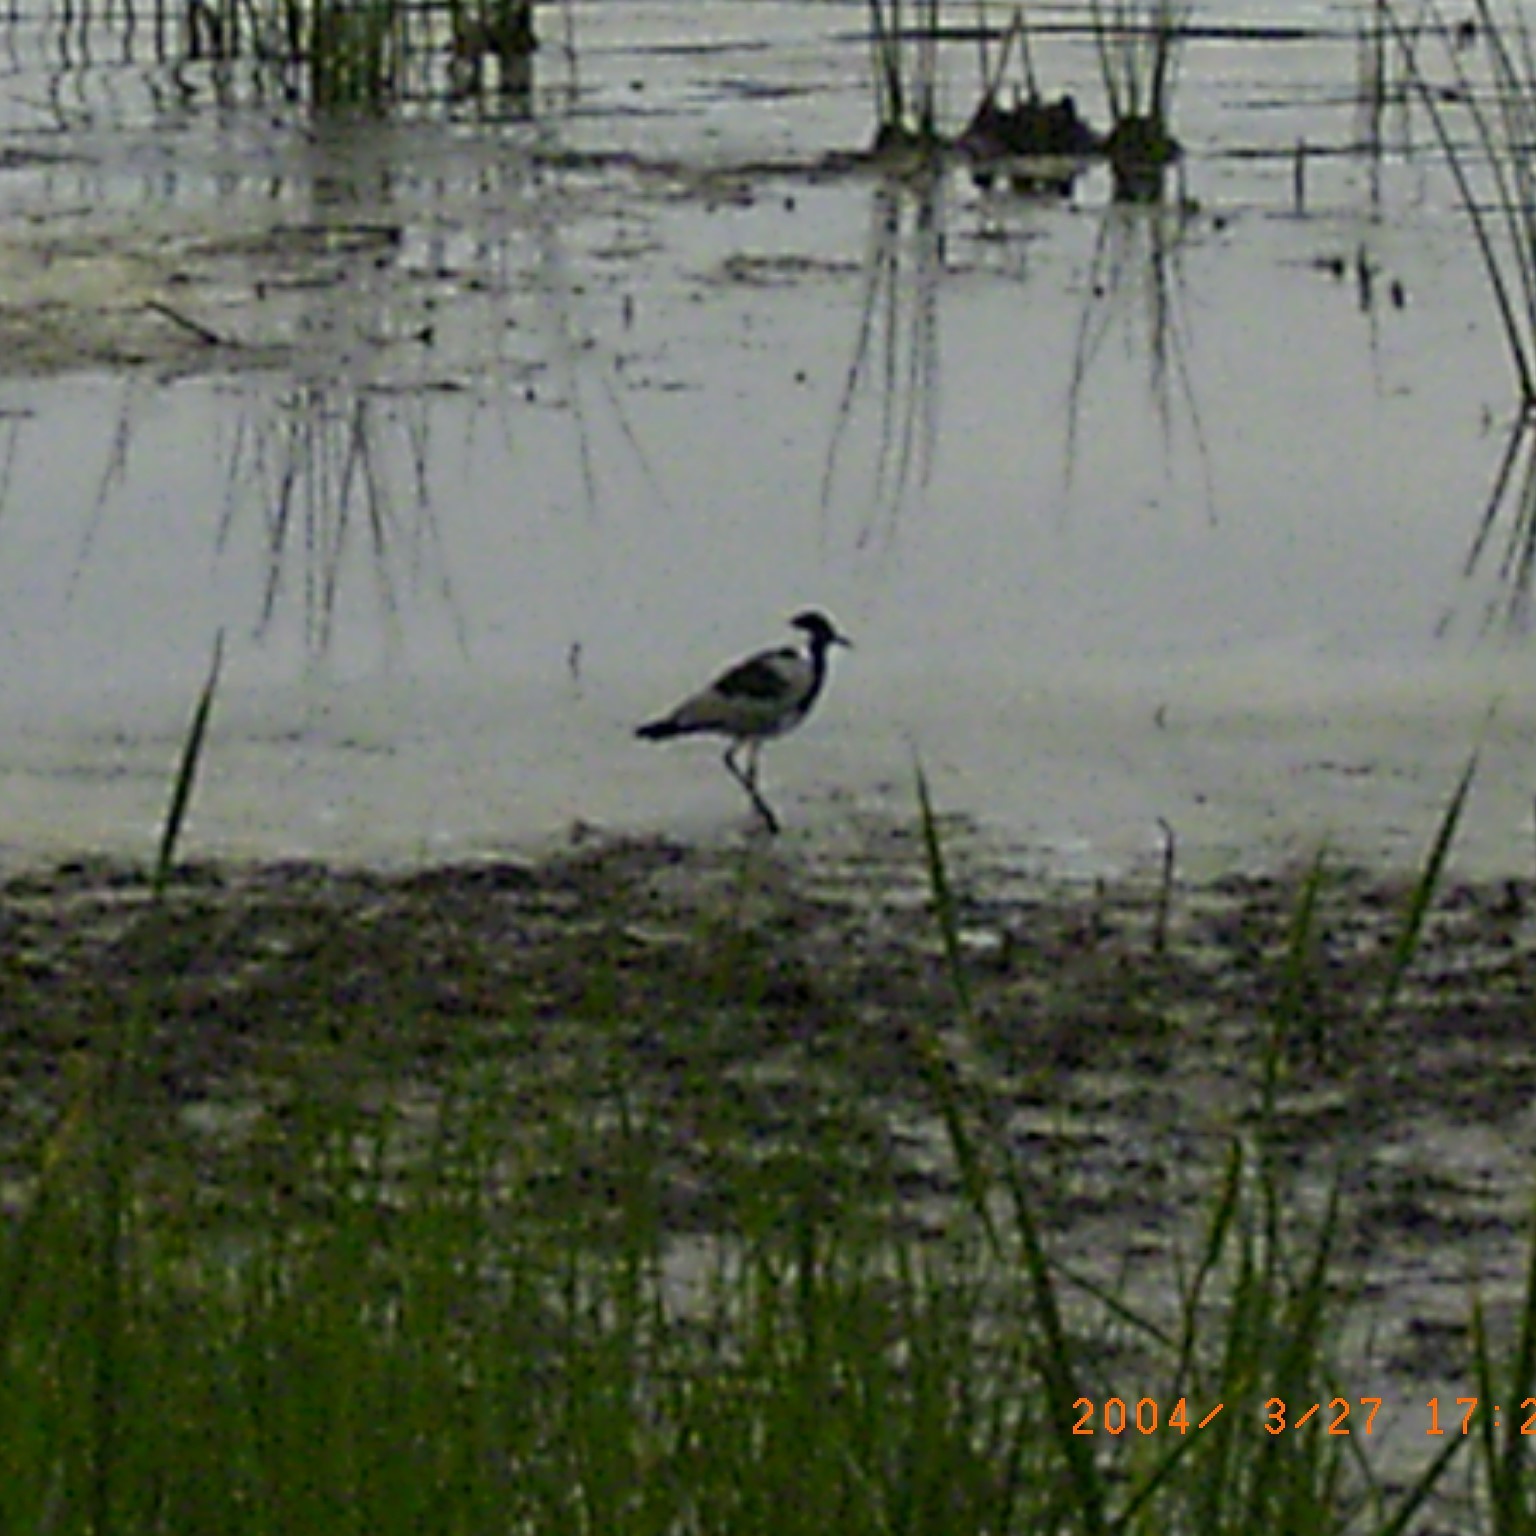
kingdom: Animalia
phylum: Chordata
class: Aves
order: Charadriiformes
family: Charadriidae
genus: Vanellus
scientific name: Vanellus armatus
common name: Blacksmith lapwing
